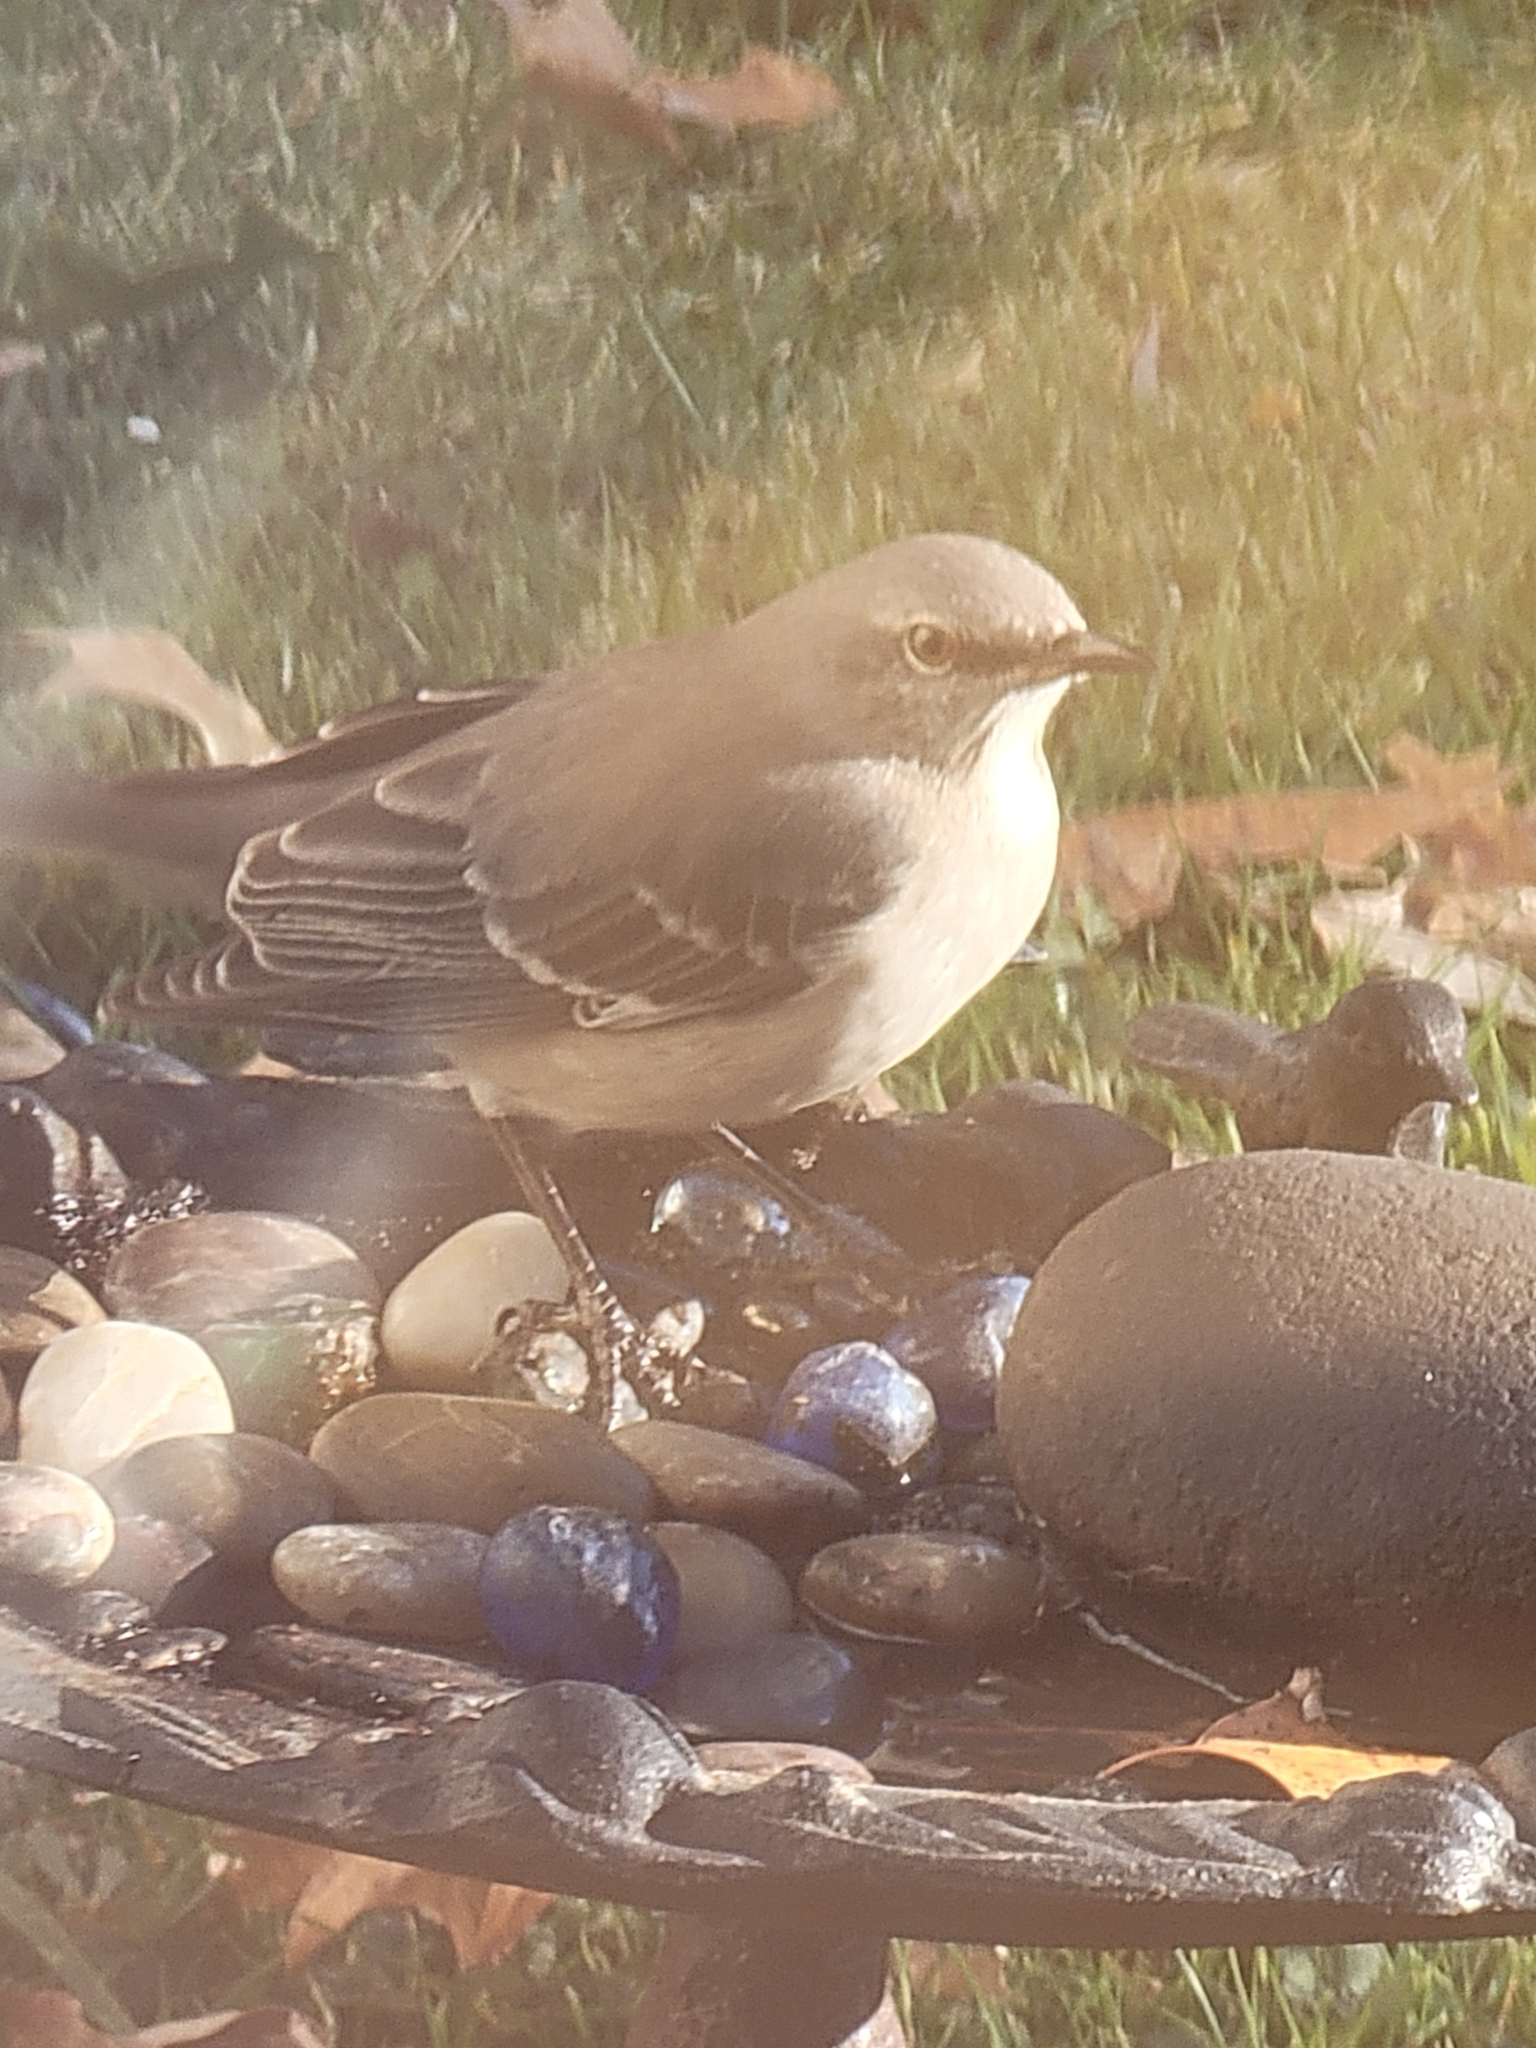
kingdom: Animalia
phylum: Chordata
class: Aves
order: Passeriformes
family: Mimidae
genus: Mimus
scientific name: Mimus polyglottos
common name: Northern mockingbird
